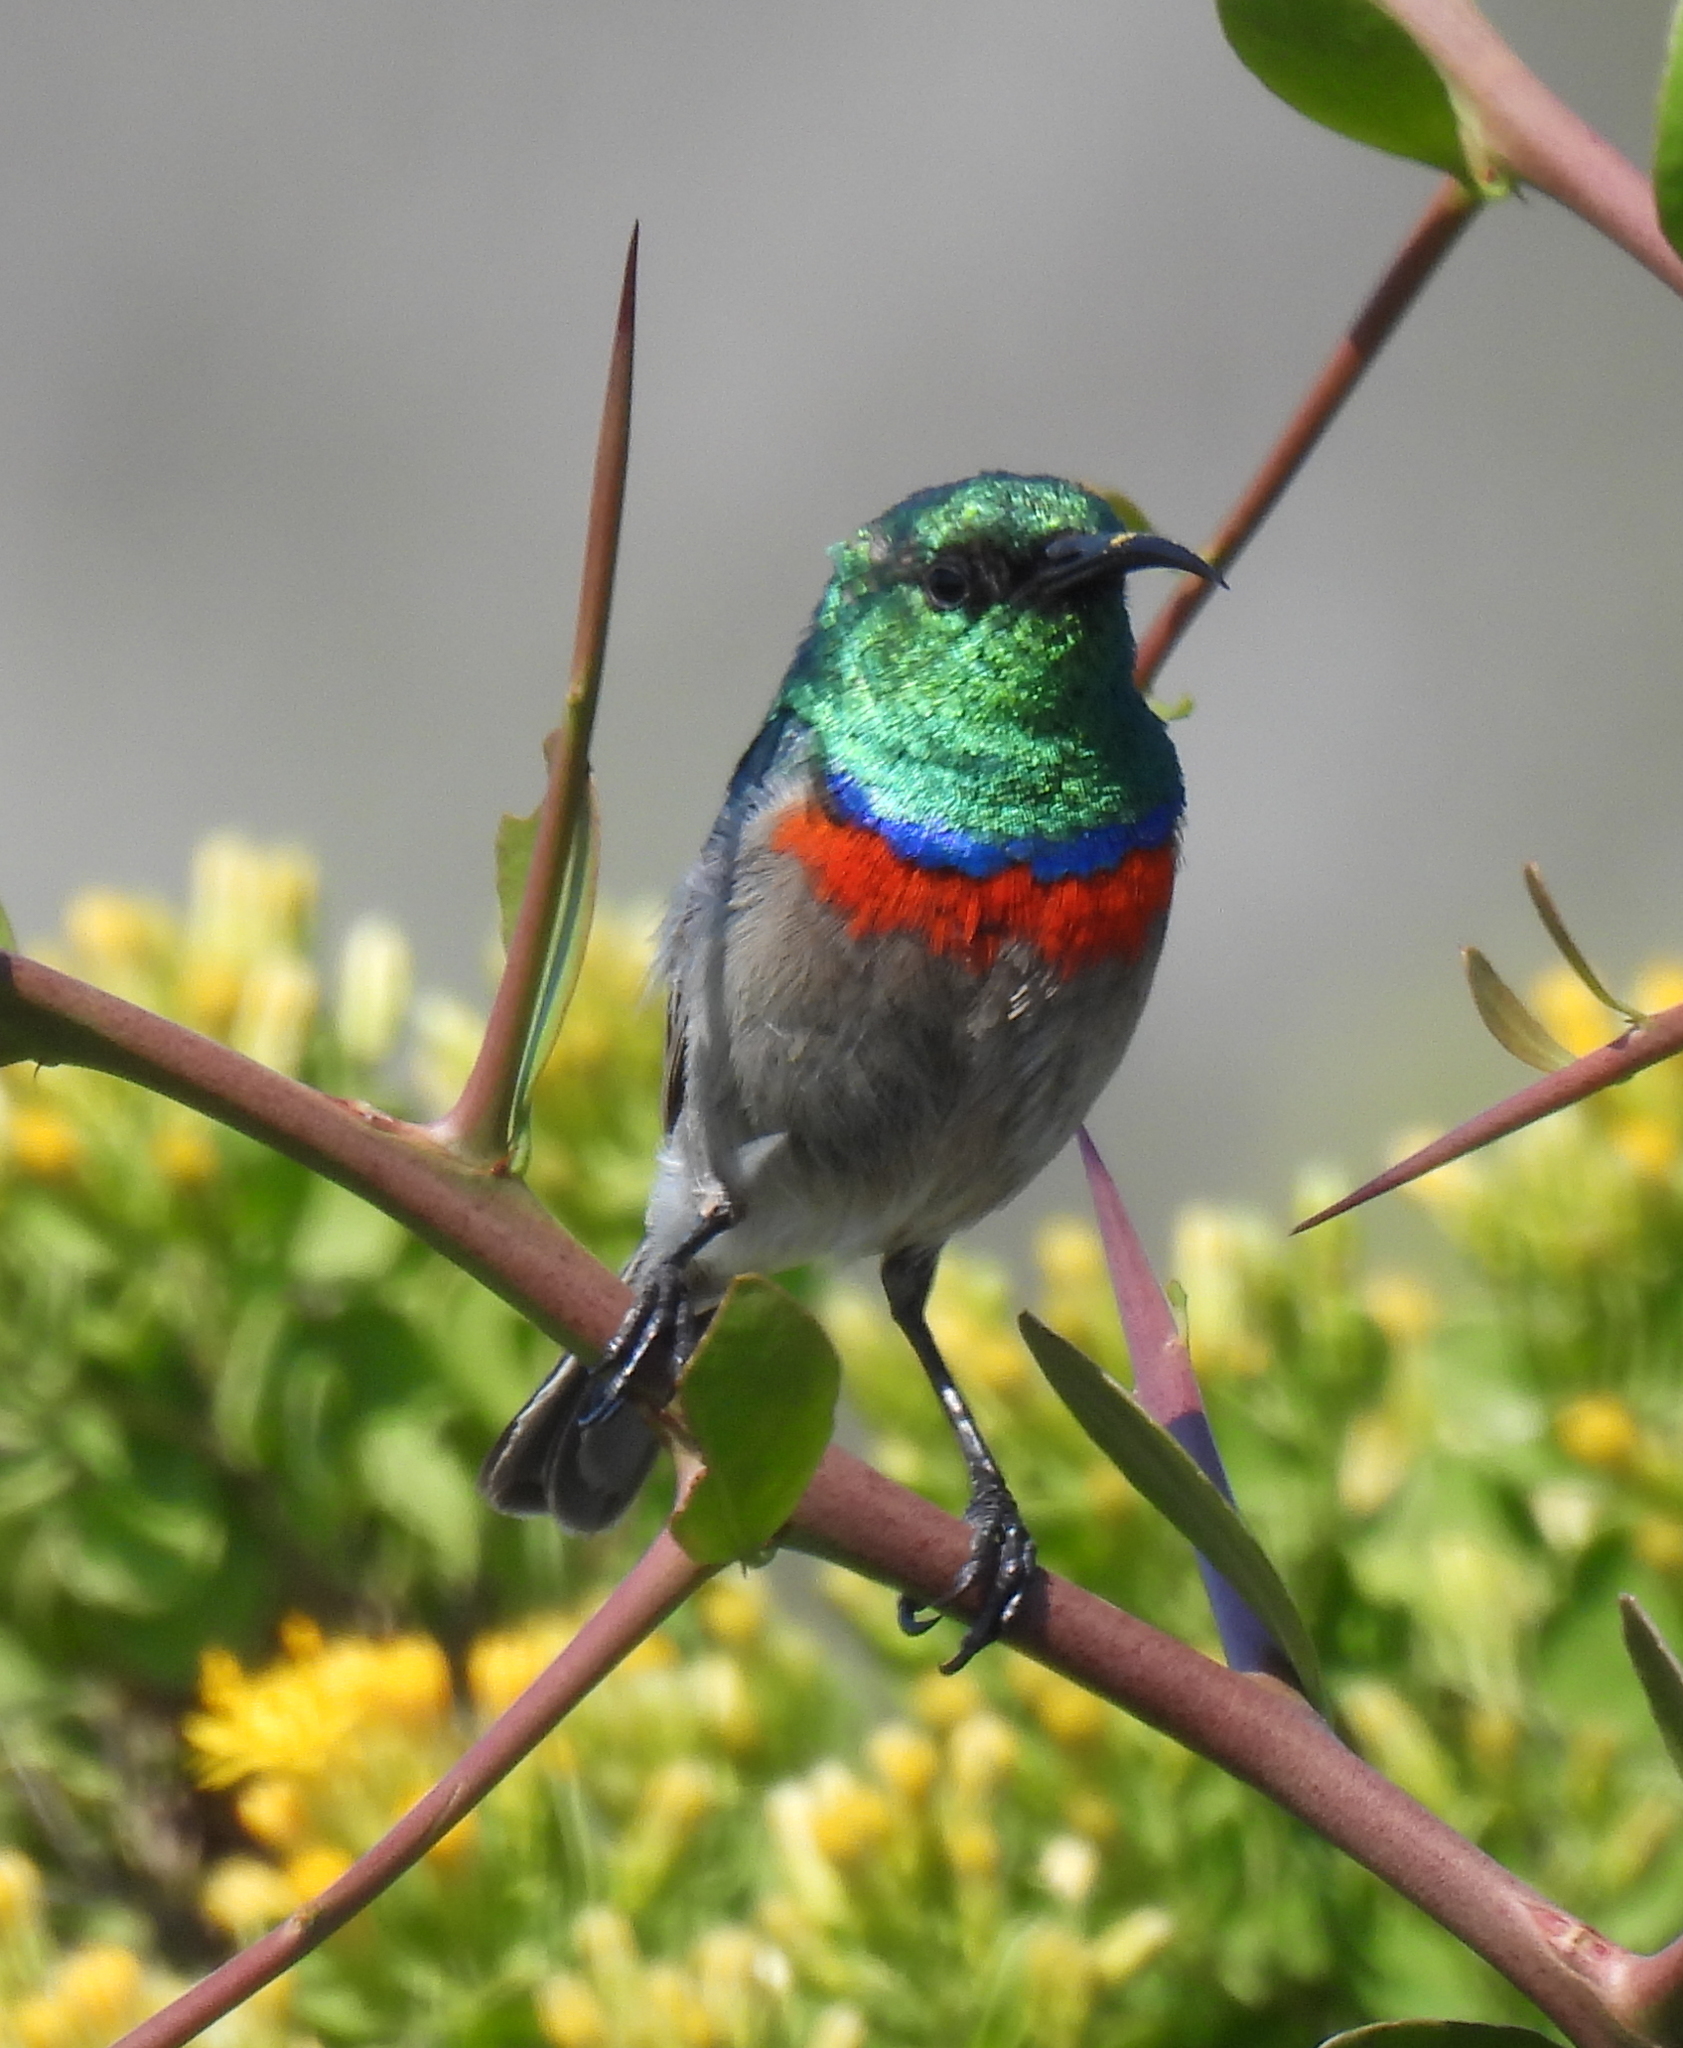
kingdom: Animalia
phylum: Chordata
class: Aves
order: Passeriformes
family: Nectariniidae
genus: Cinnyris
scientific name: Cinnyris chalybeus
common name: Southern double-collared sunbird
